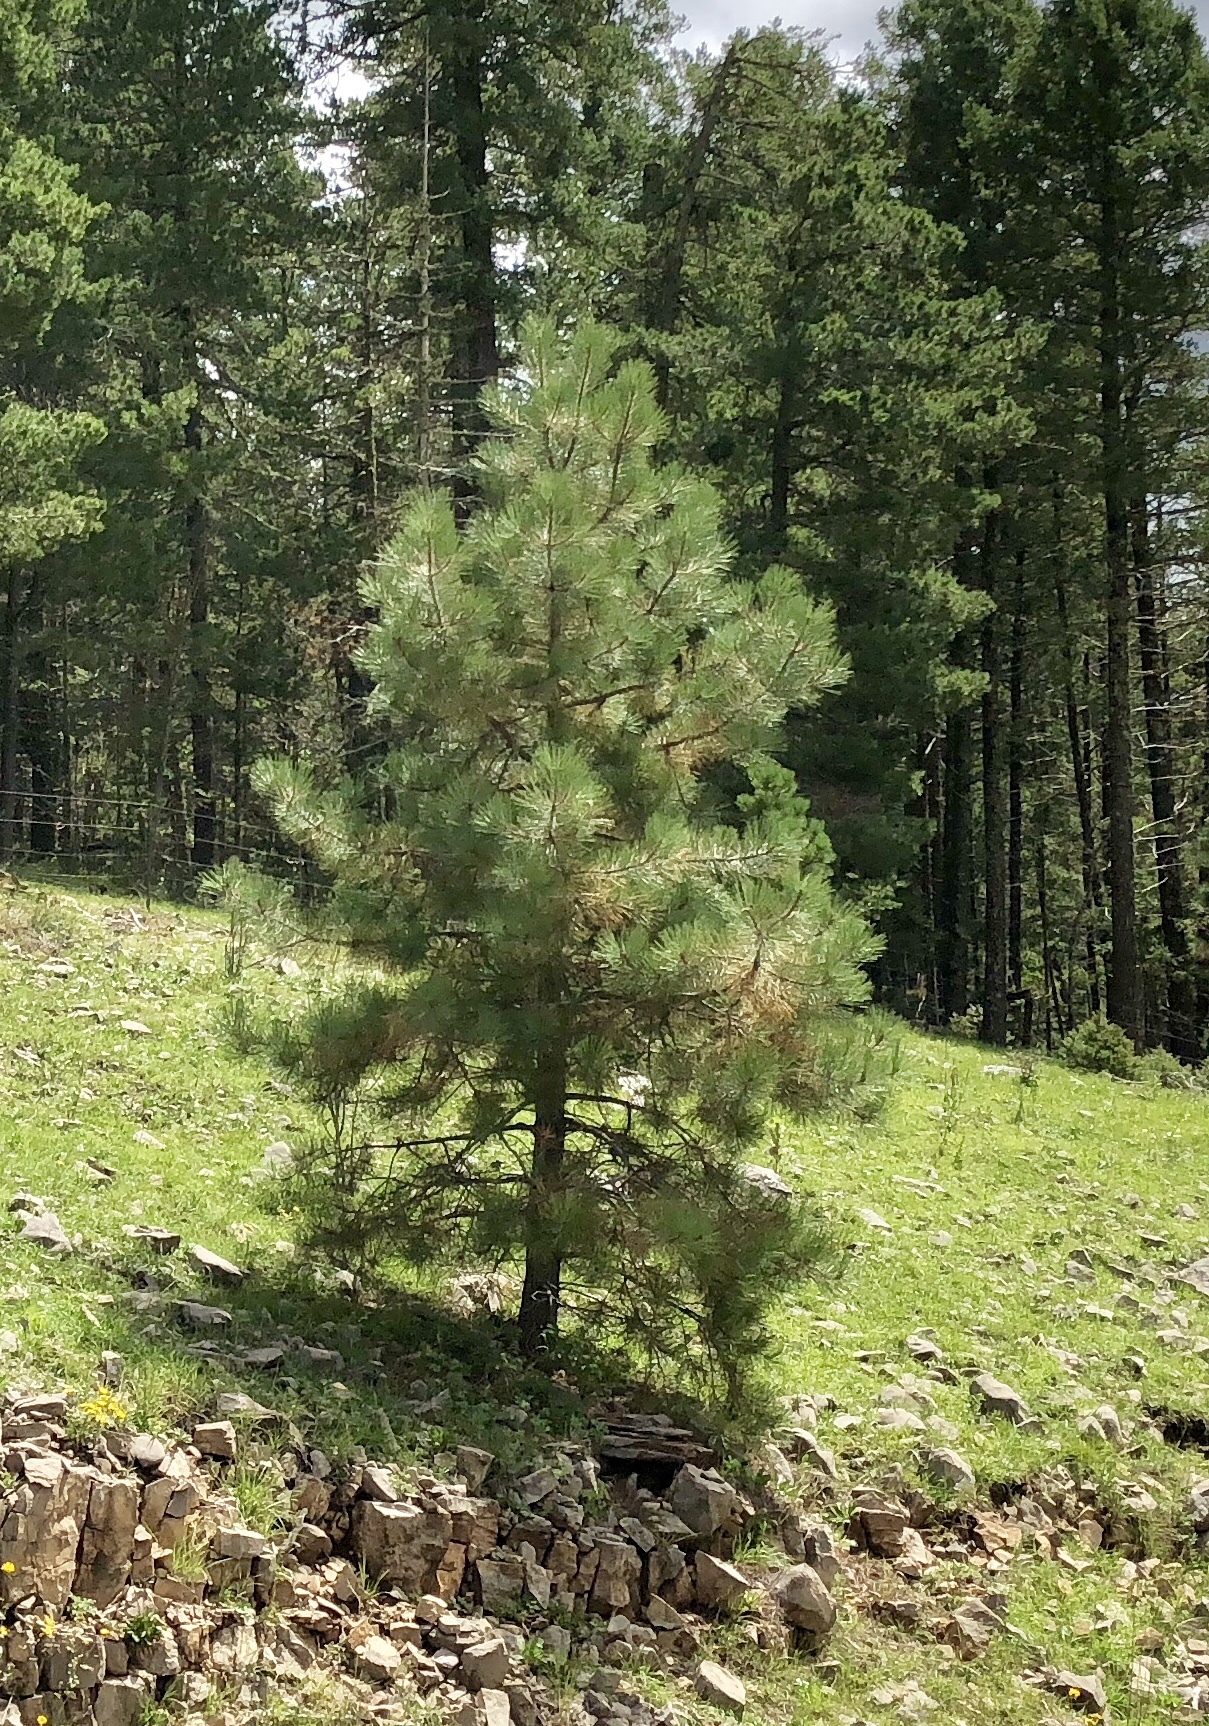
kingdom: Plantae
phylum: Tracheophyta
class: Pinopsida
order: Pinales
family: Pinaceae
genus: Pinus
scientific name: Pinus ponderosa
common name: Western yellow-pine
